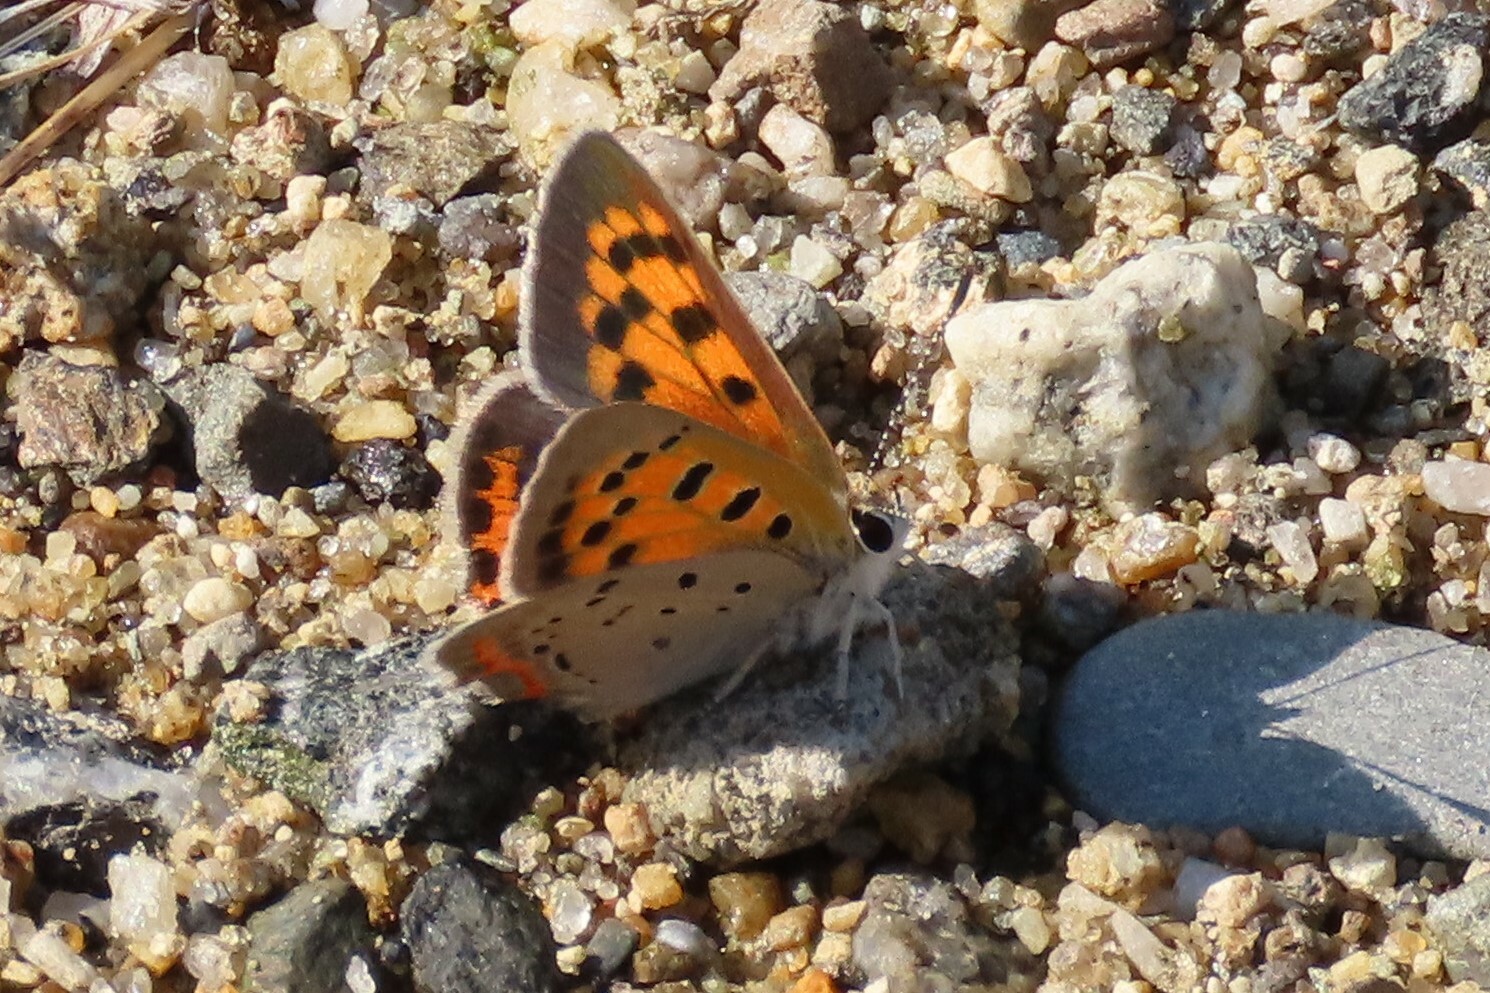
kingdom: Animalia
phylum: Arthropoda
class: Insecta
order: Lepidoptera
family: Lycaenidae
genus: Lycaena
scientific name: Lycaena hypophlaeas
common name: American copper
